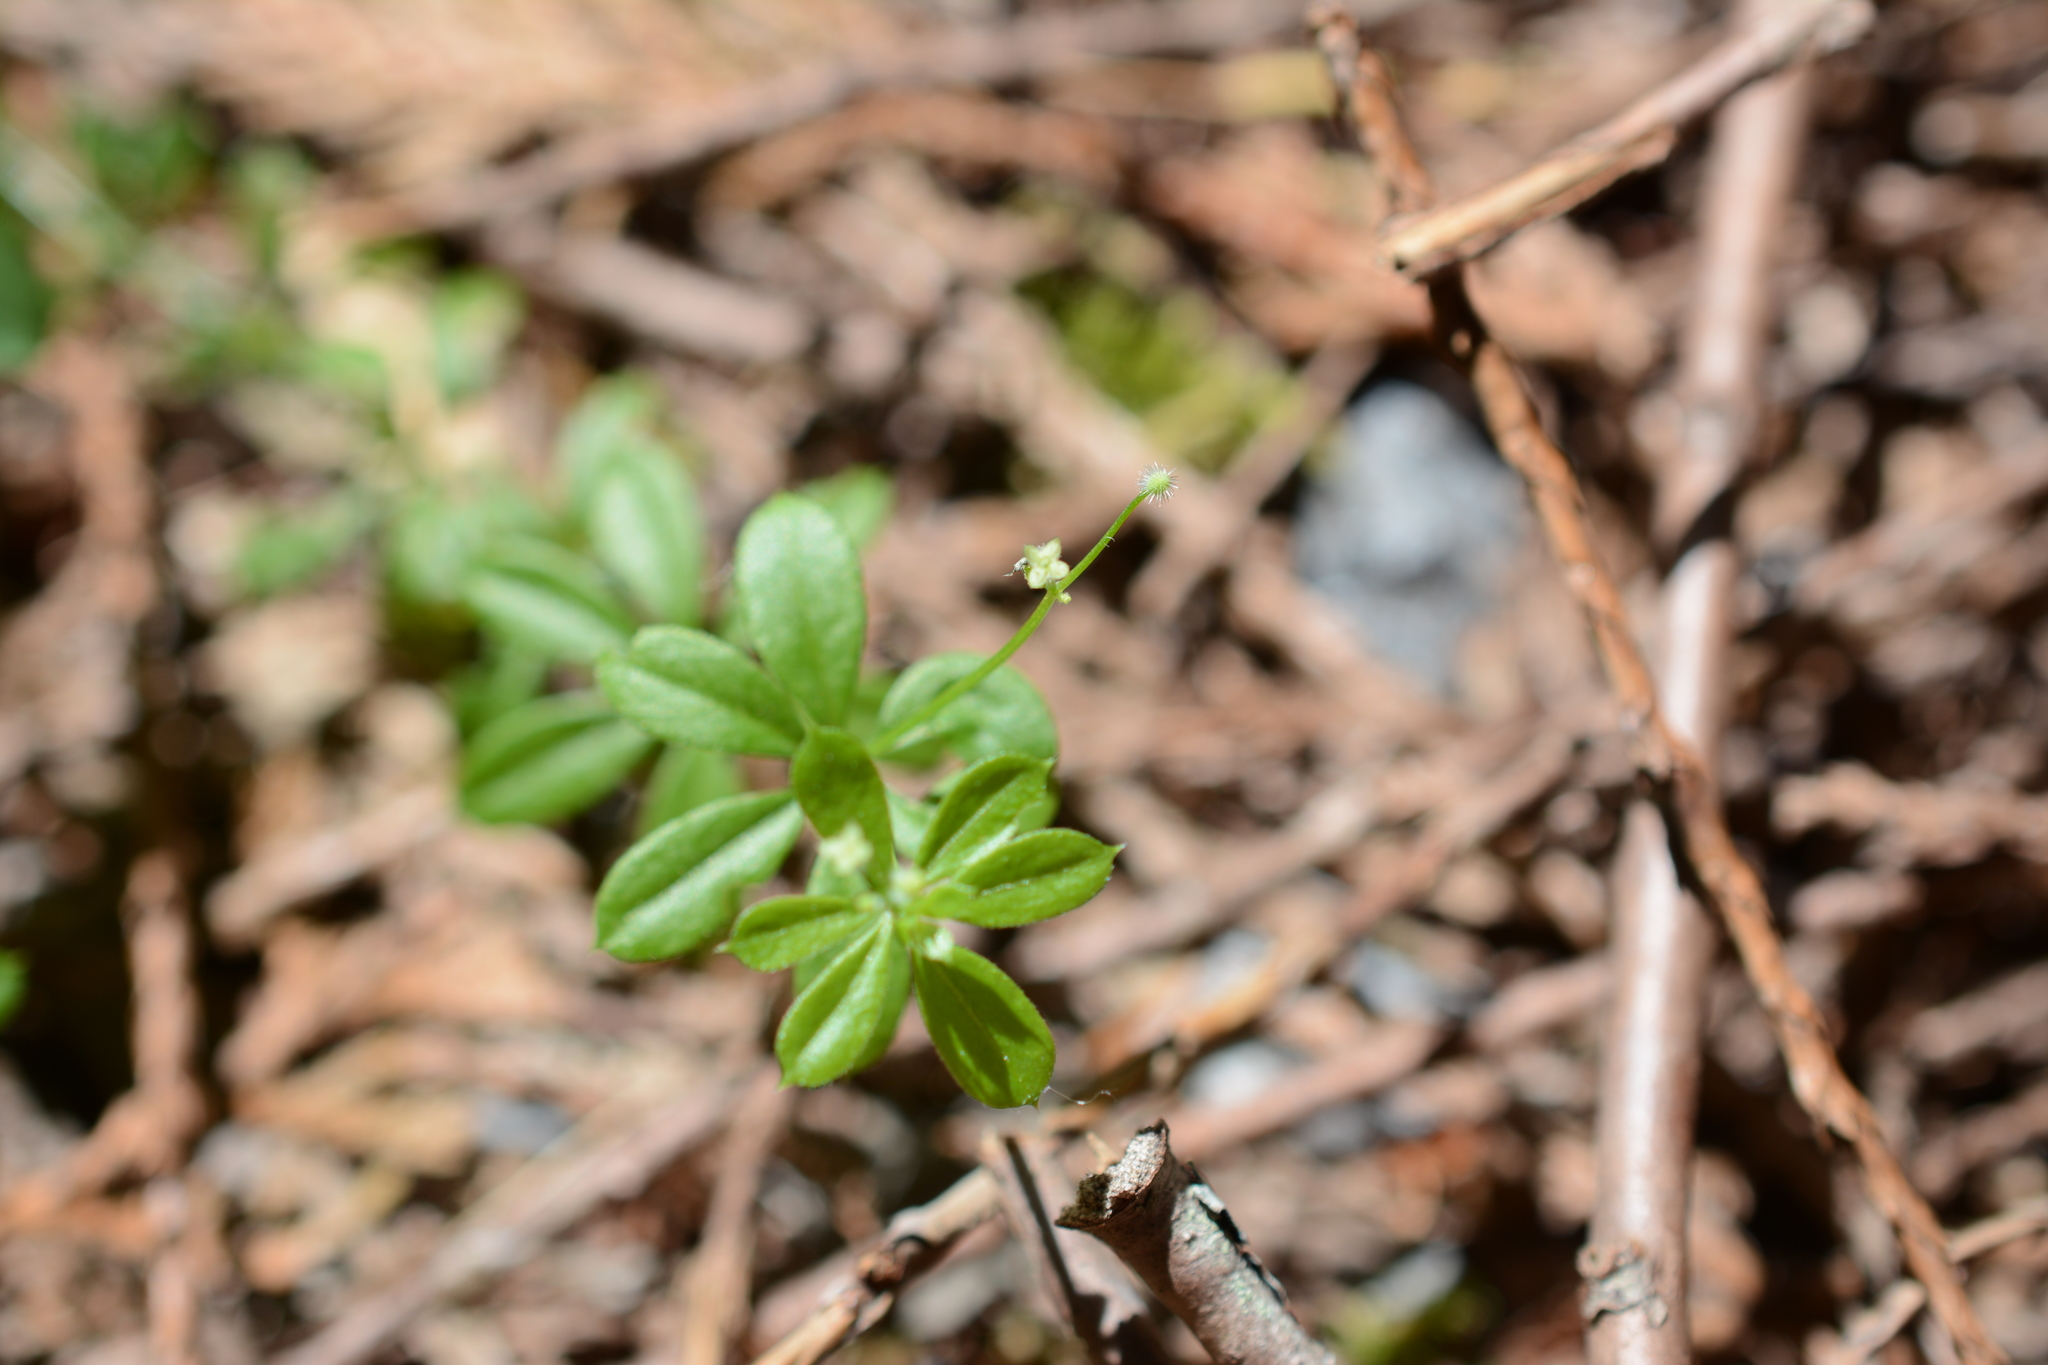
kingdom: Plantae
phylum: Tracheophyta
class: Magnoliopsida
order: Gentianales
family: Rubiaceae
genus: Galium
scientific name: Galium triflorum
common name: Fragrant bedstraw
